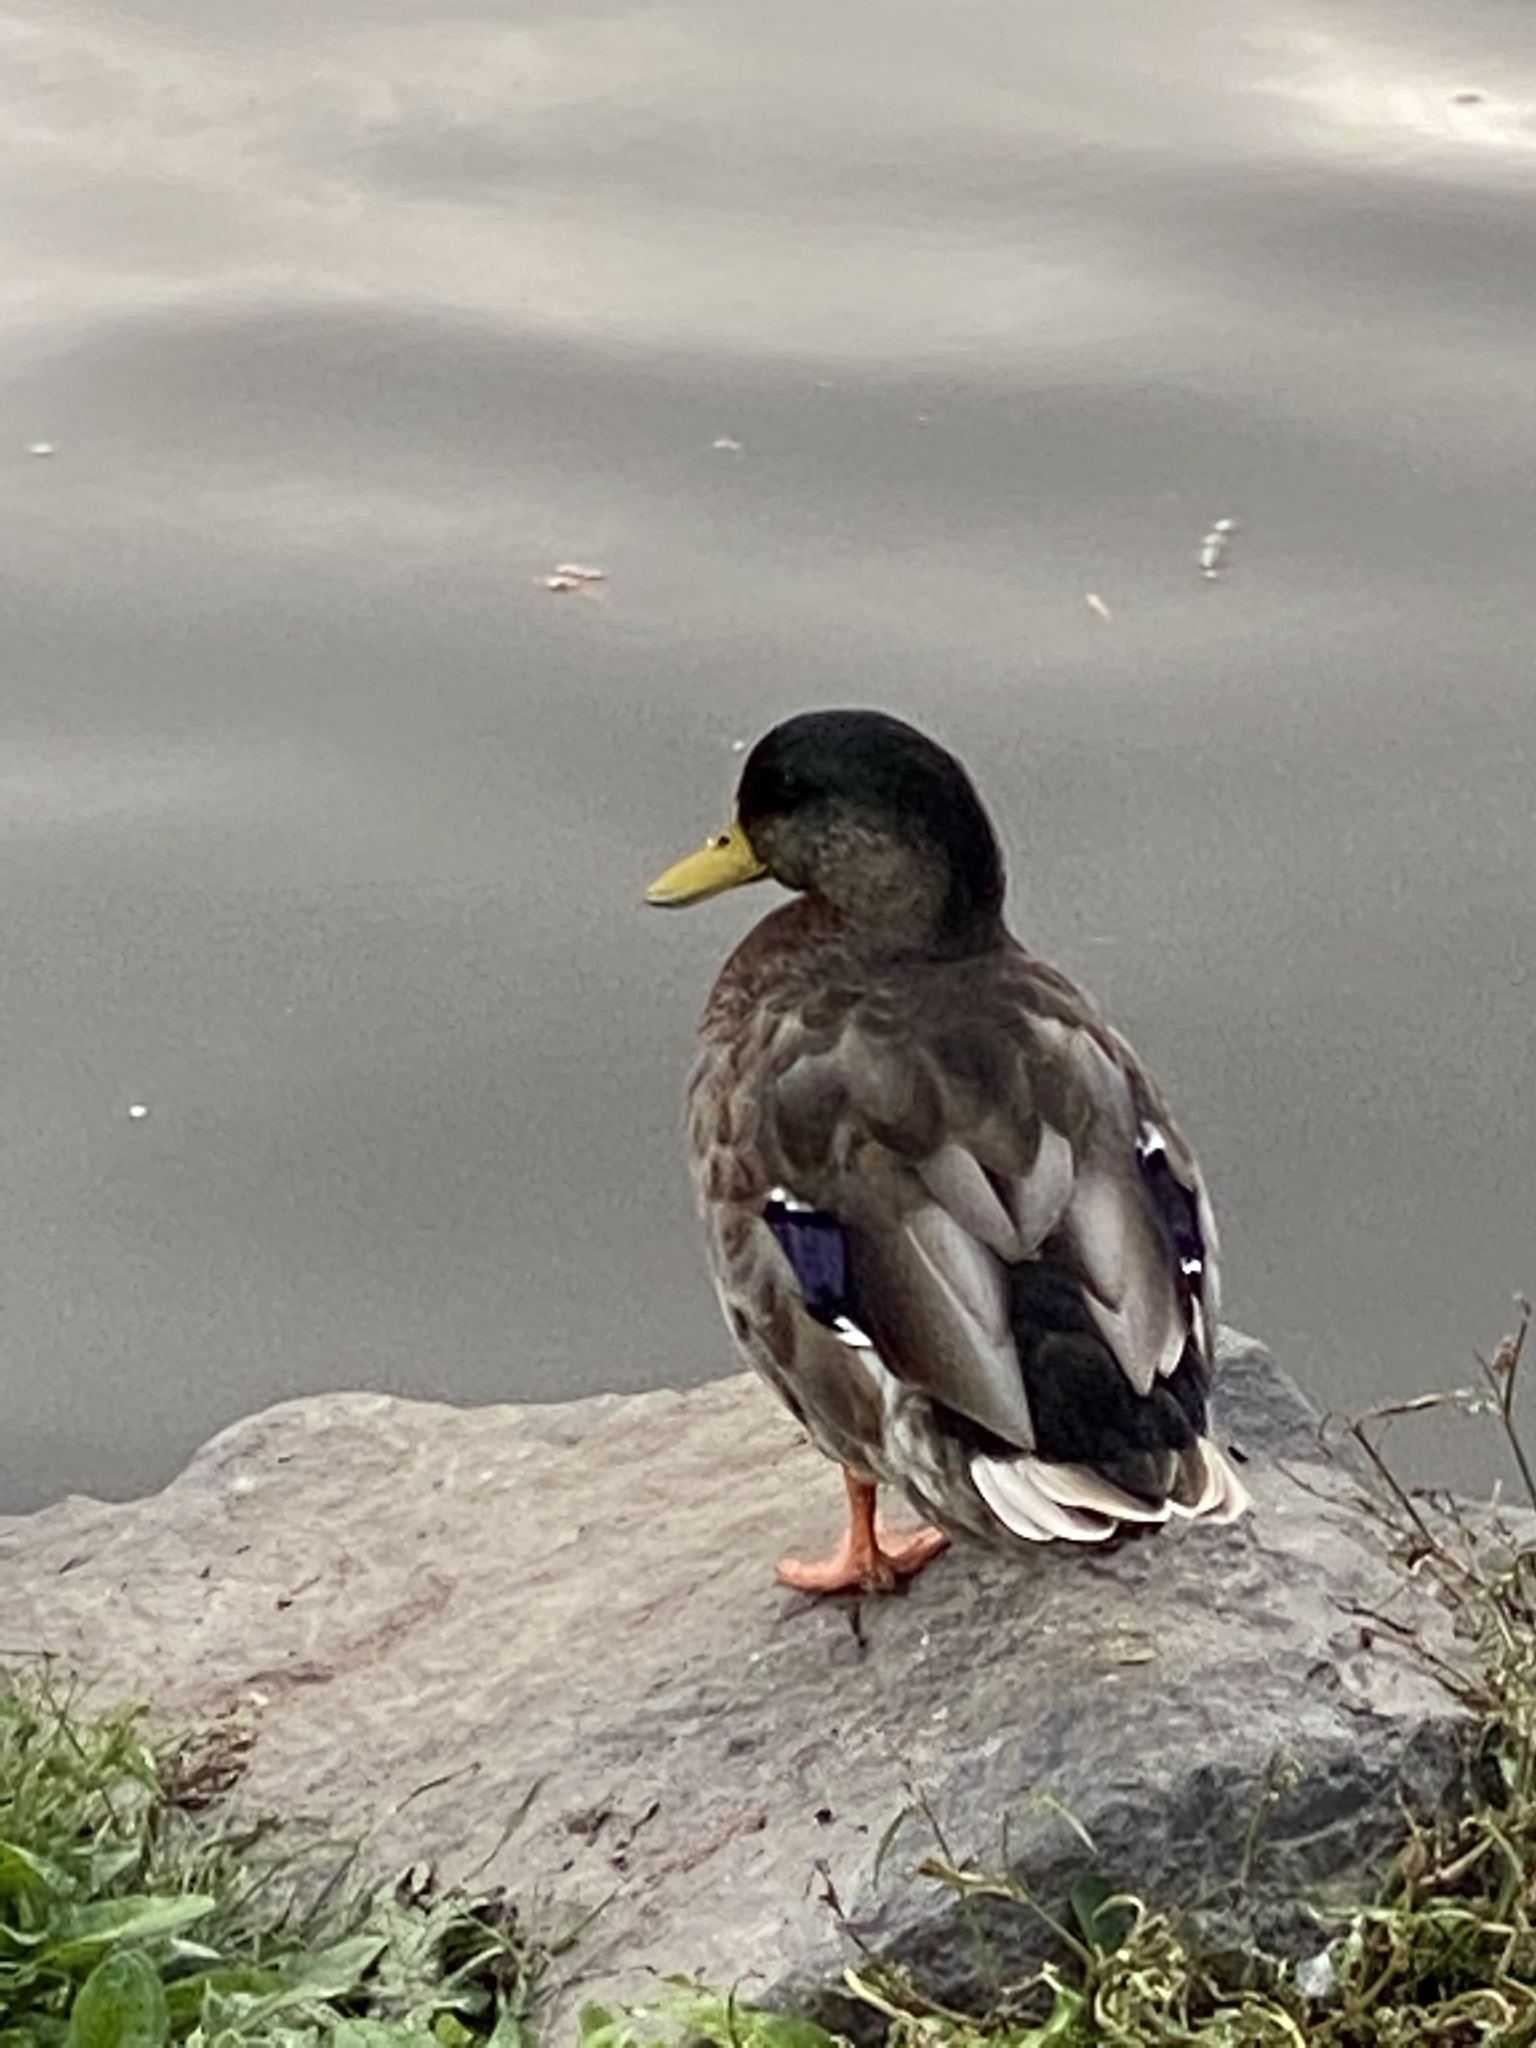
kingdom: Animalia
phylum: Chordata
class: Aves
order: Anseriformes
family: Anatidae
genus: Anas
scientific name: Anas platyrhynchos
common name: Mallard
